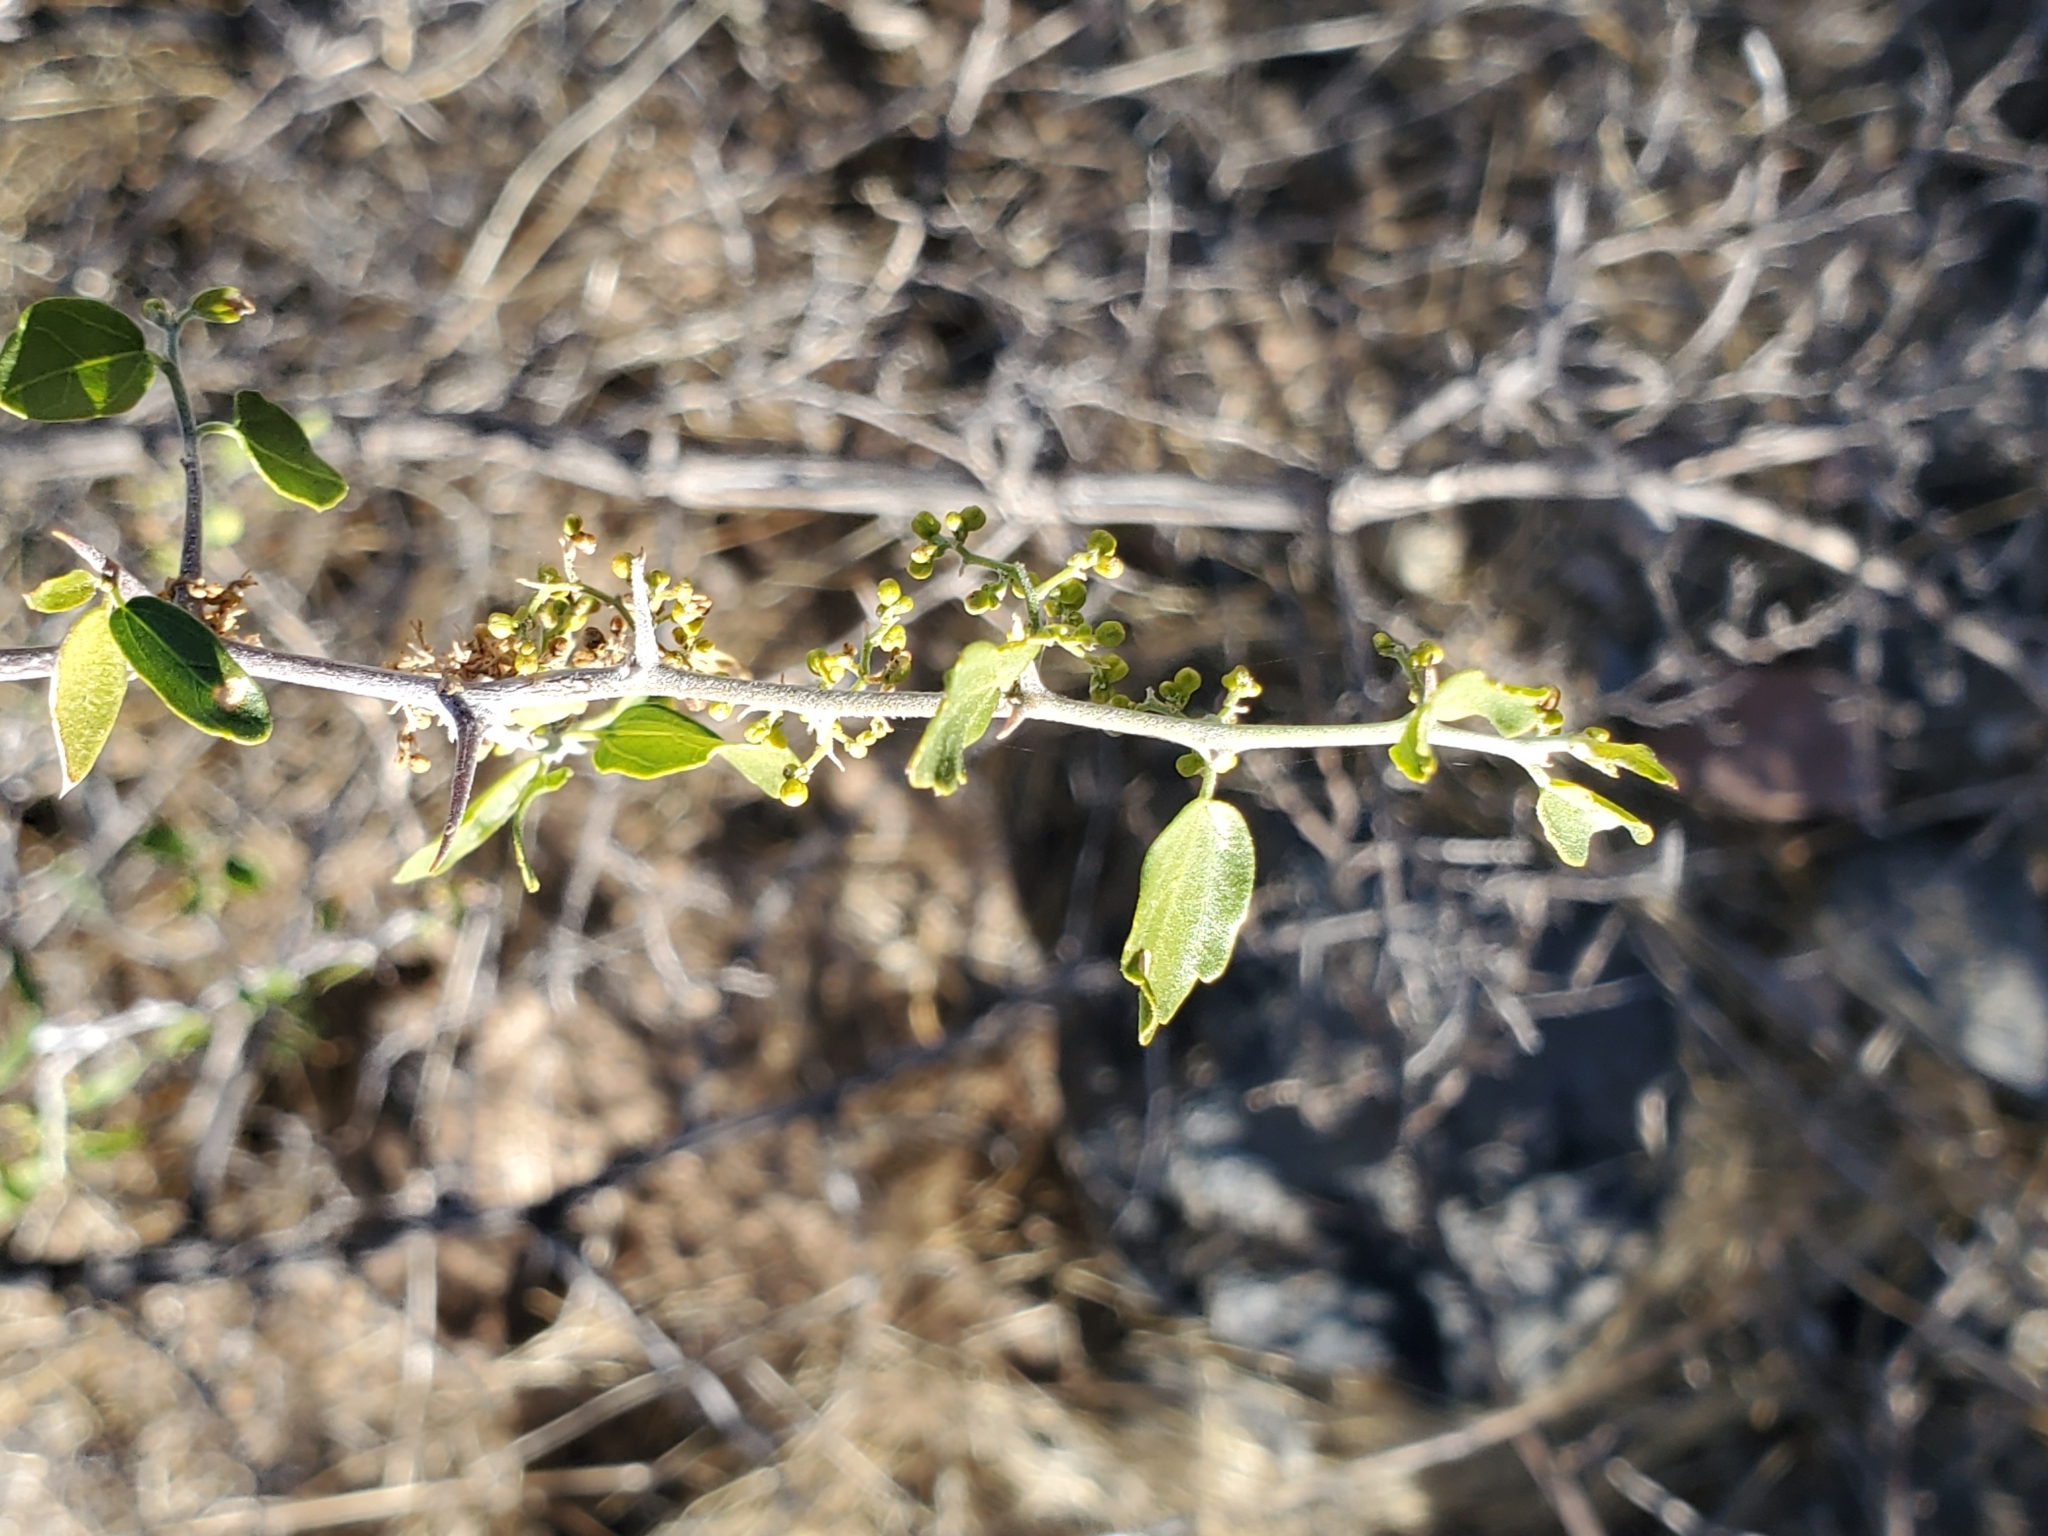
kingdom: Plantae
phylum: Tracheophyta
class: Magnoliopsida
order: Rosales
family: Rhamnaceae
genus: Colubrina
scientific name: Colubrina californica
